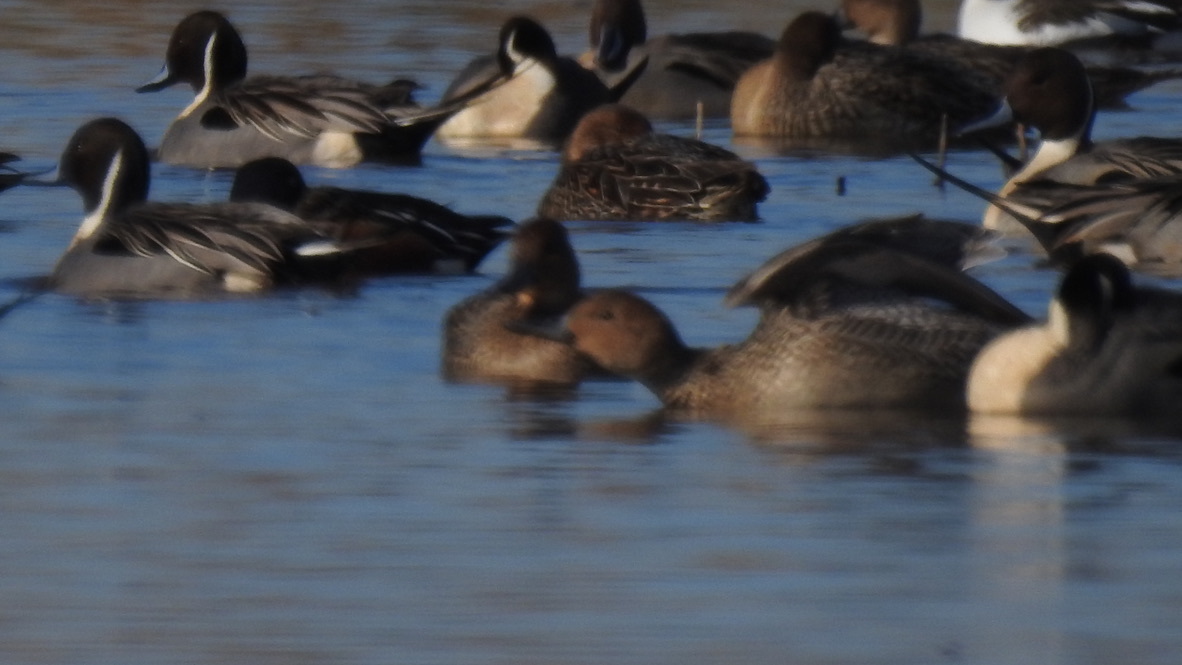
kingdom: Animalia
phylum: Chordata
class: Aves
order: Anseriformes
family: Anatidae
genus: Anas
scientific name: Anas acuta
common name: Northern pintail
